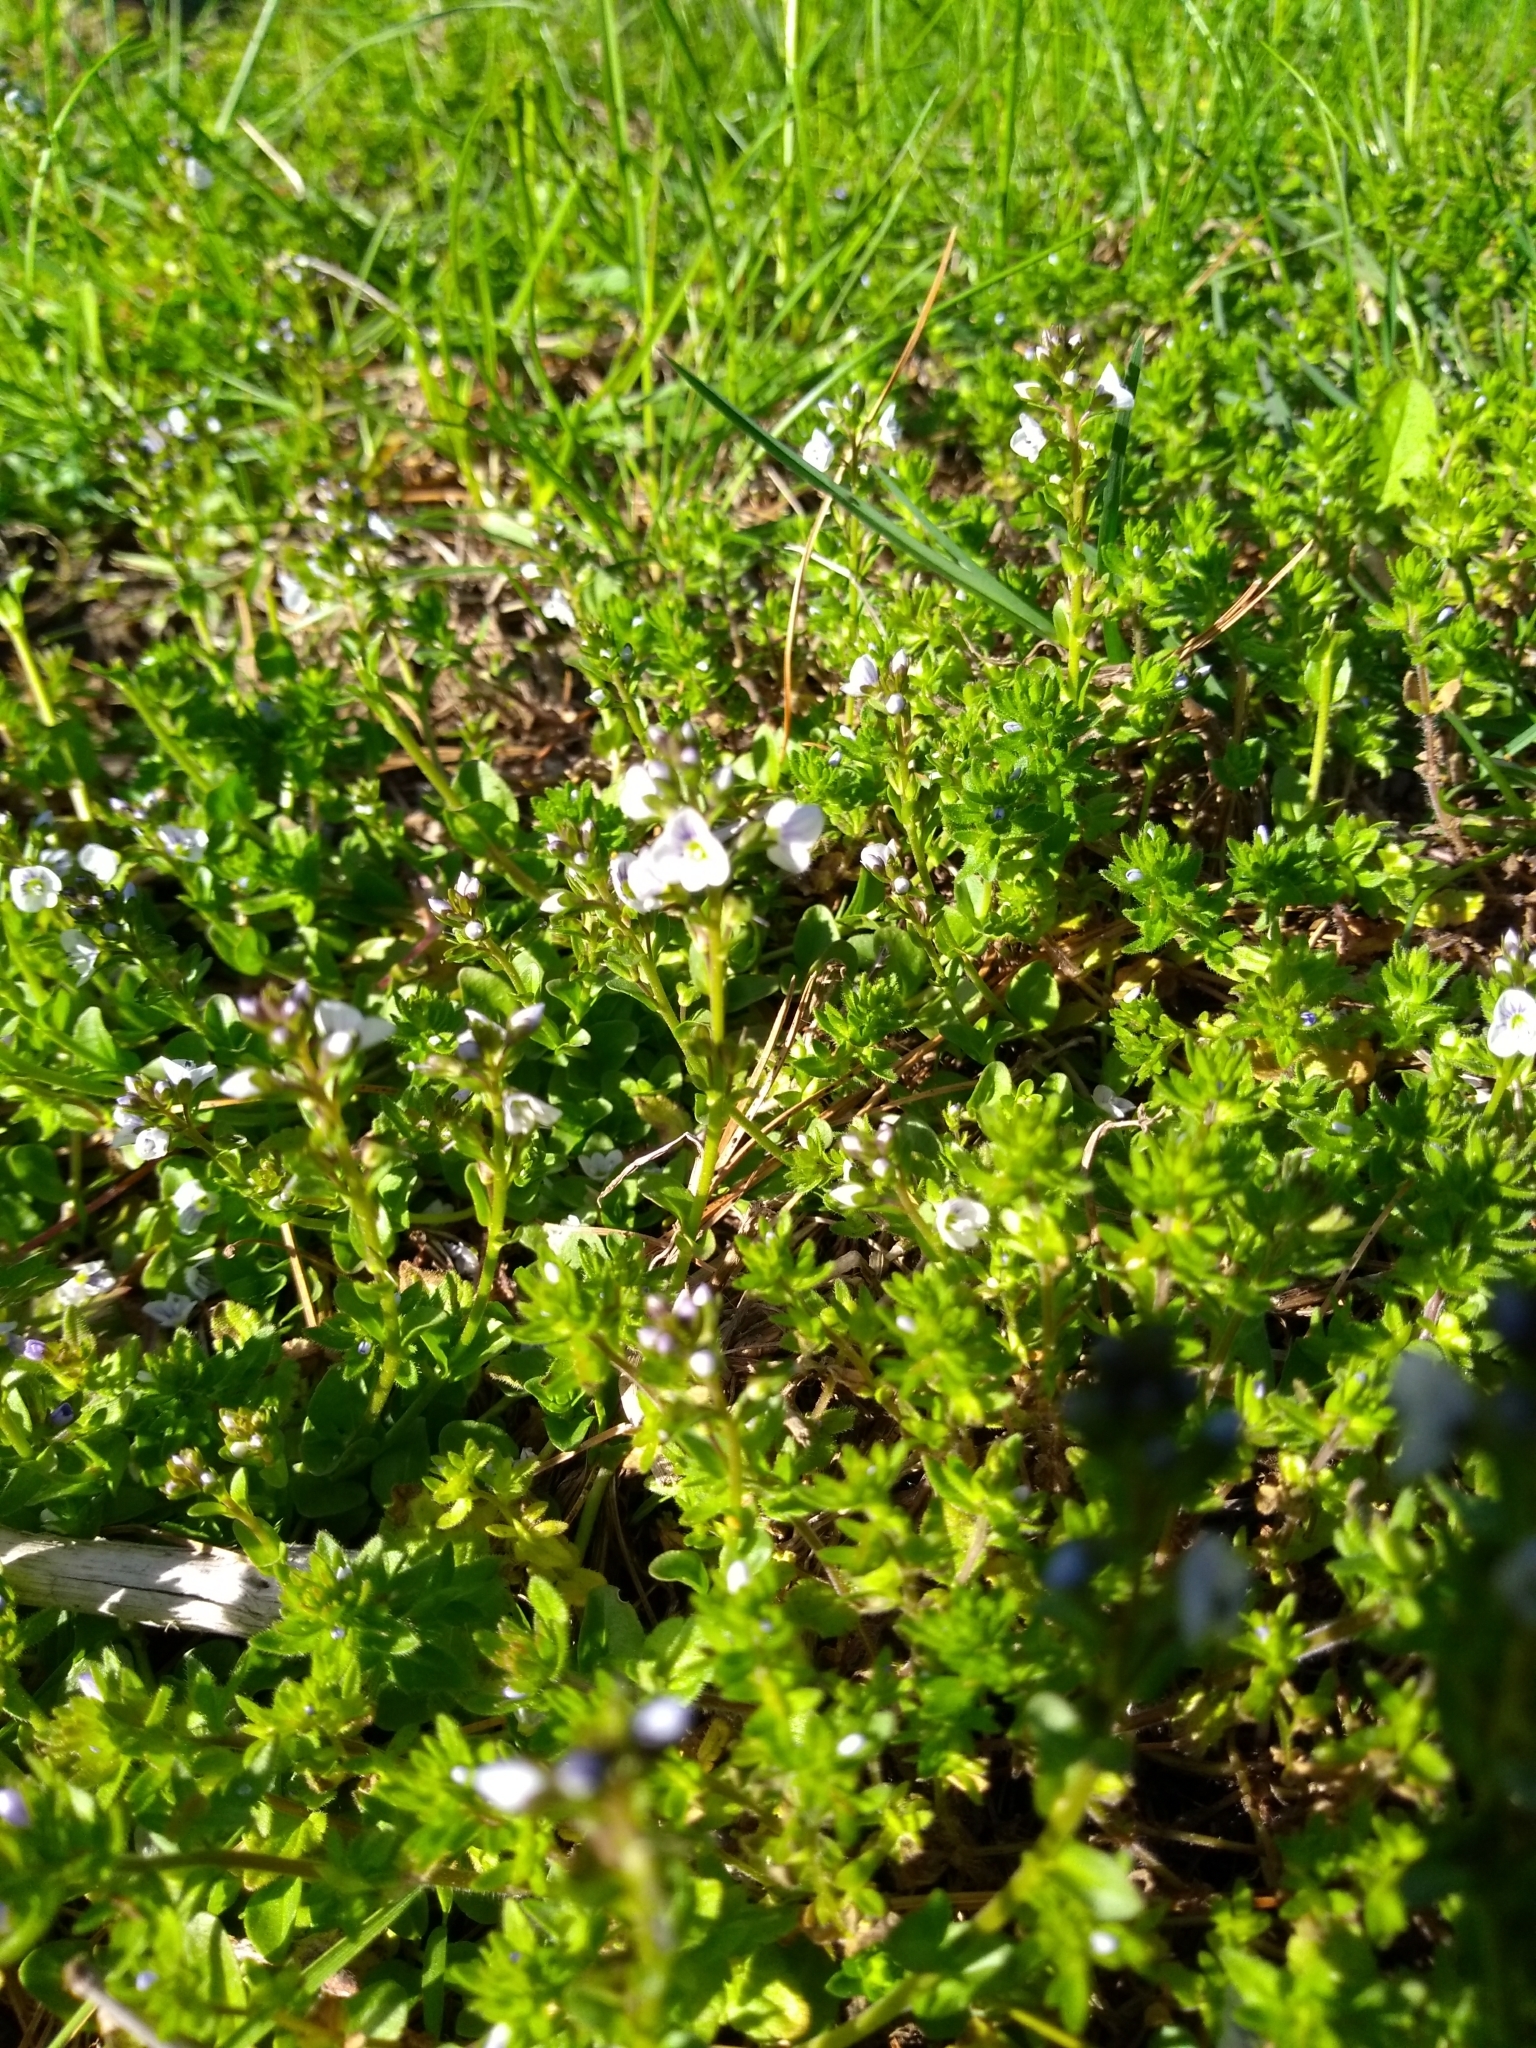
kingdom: Plantae
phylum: Tracheophyta
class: Magnoliopsida
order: Lamiales
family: Plantaginaceae
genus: Veronica
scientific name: Veronica serpyllifolia
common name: Thyme-leaved speedwell
